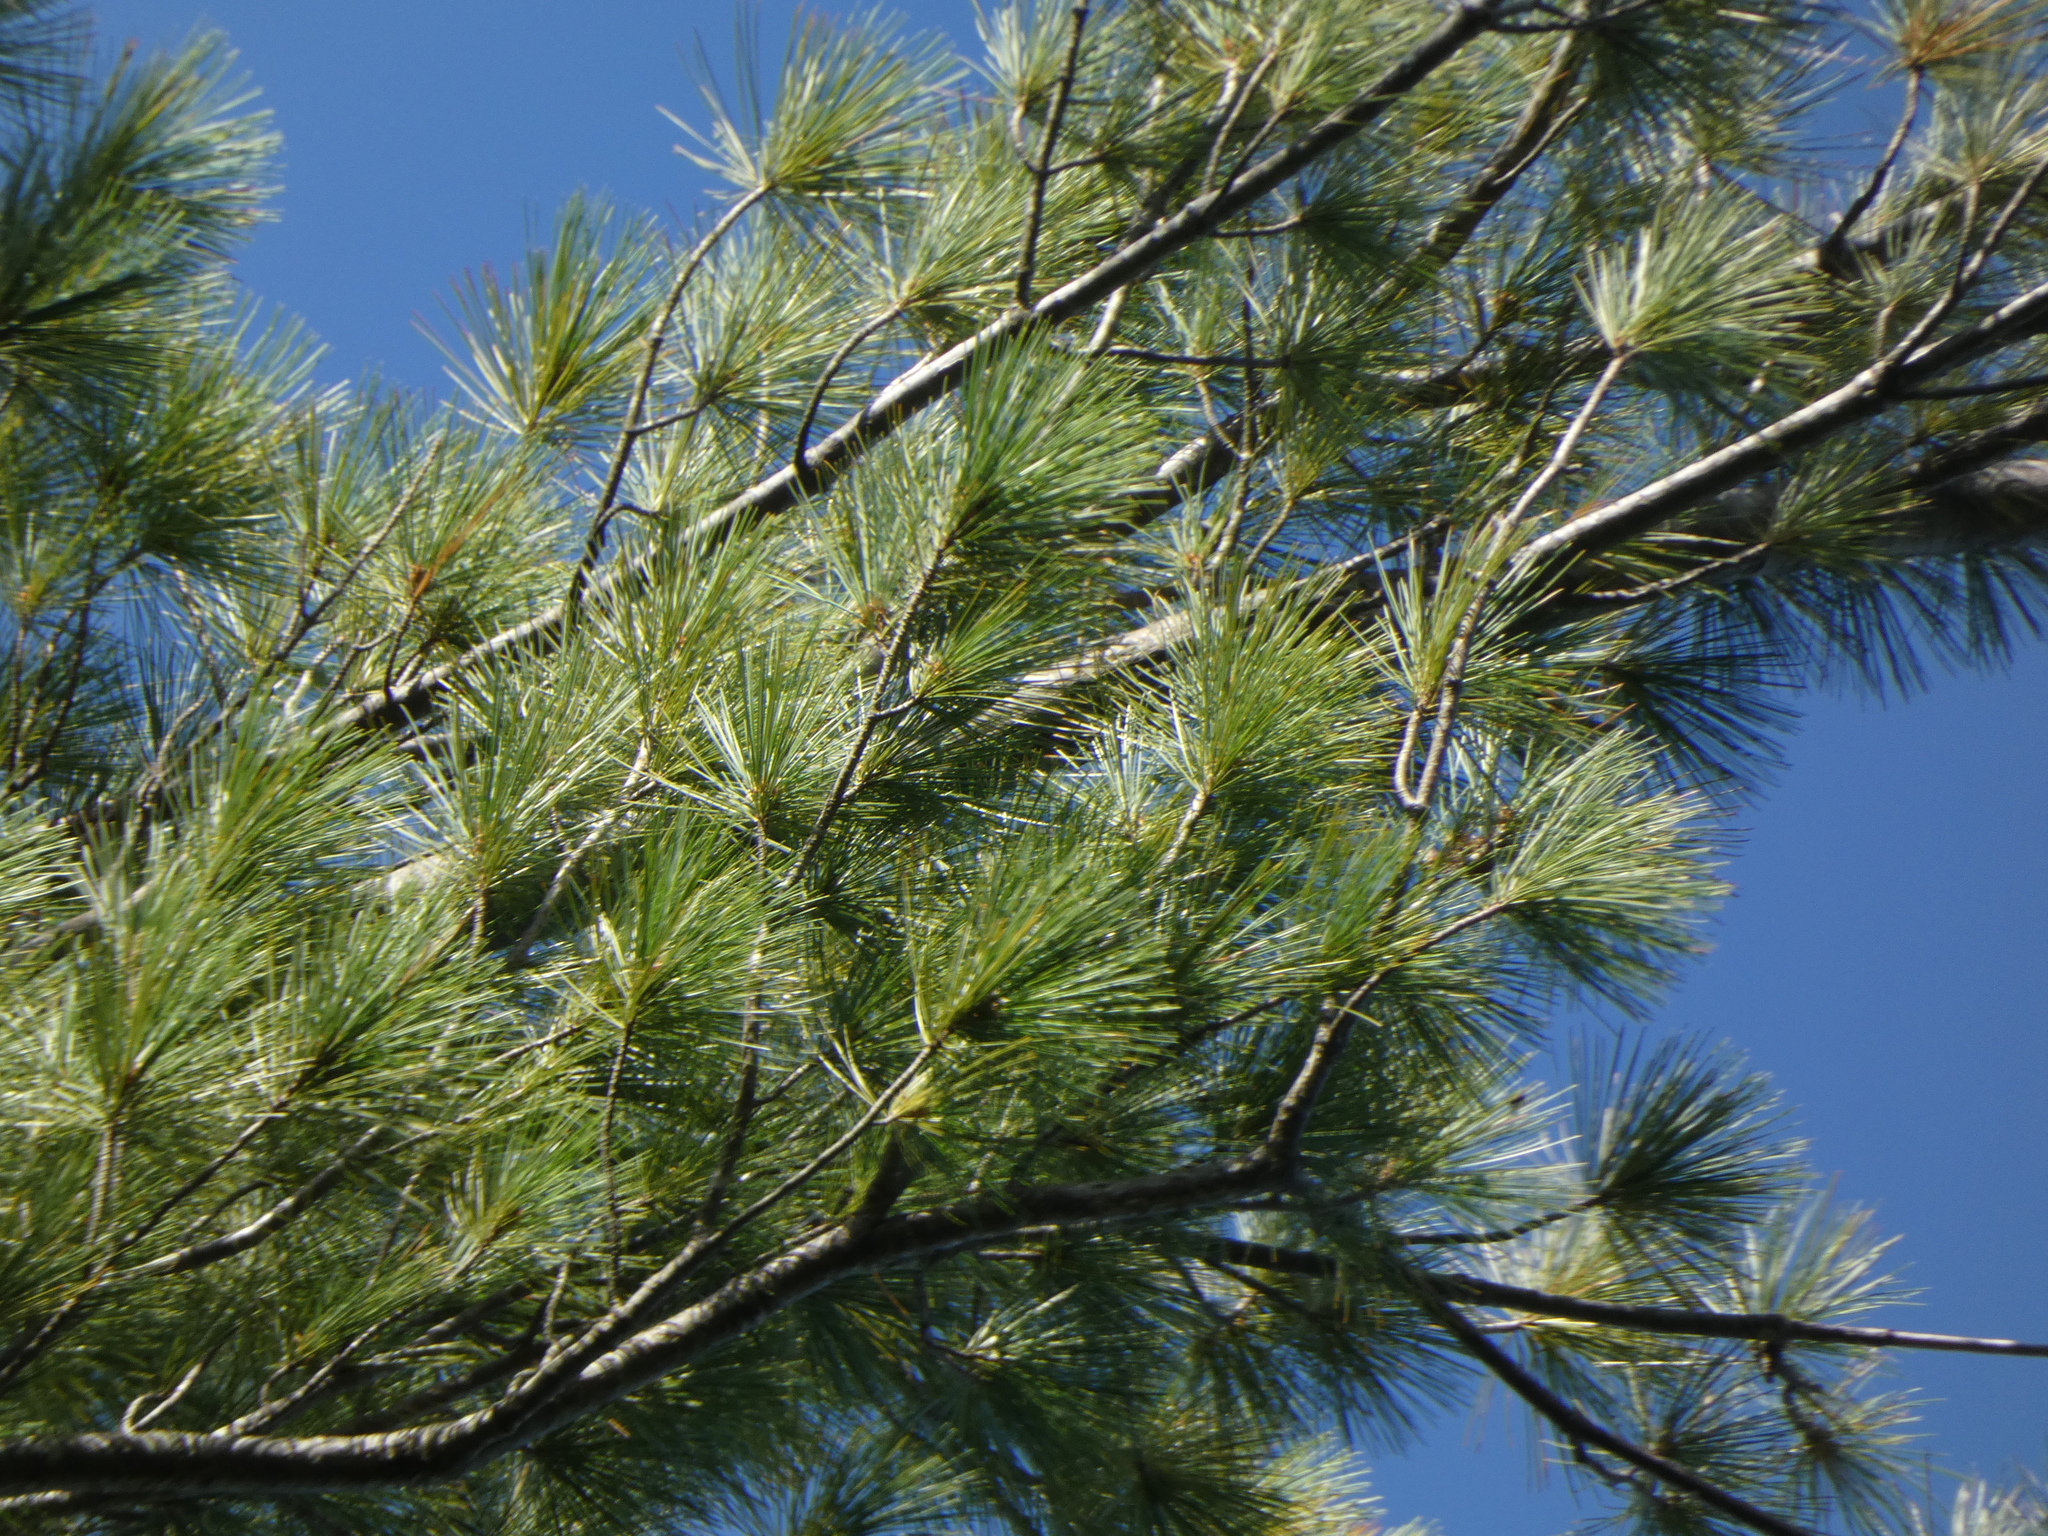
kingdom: Plantae
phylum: Tracheophyta
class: Pinopsida
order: Pinales
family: Pinaceae
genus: Pinus
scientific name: Pinus strobus
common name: Weymouth pine
